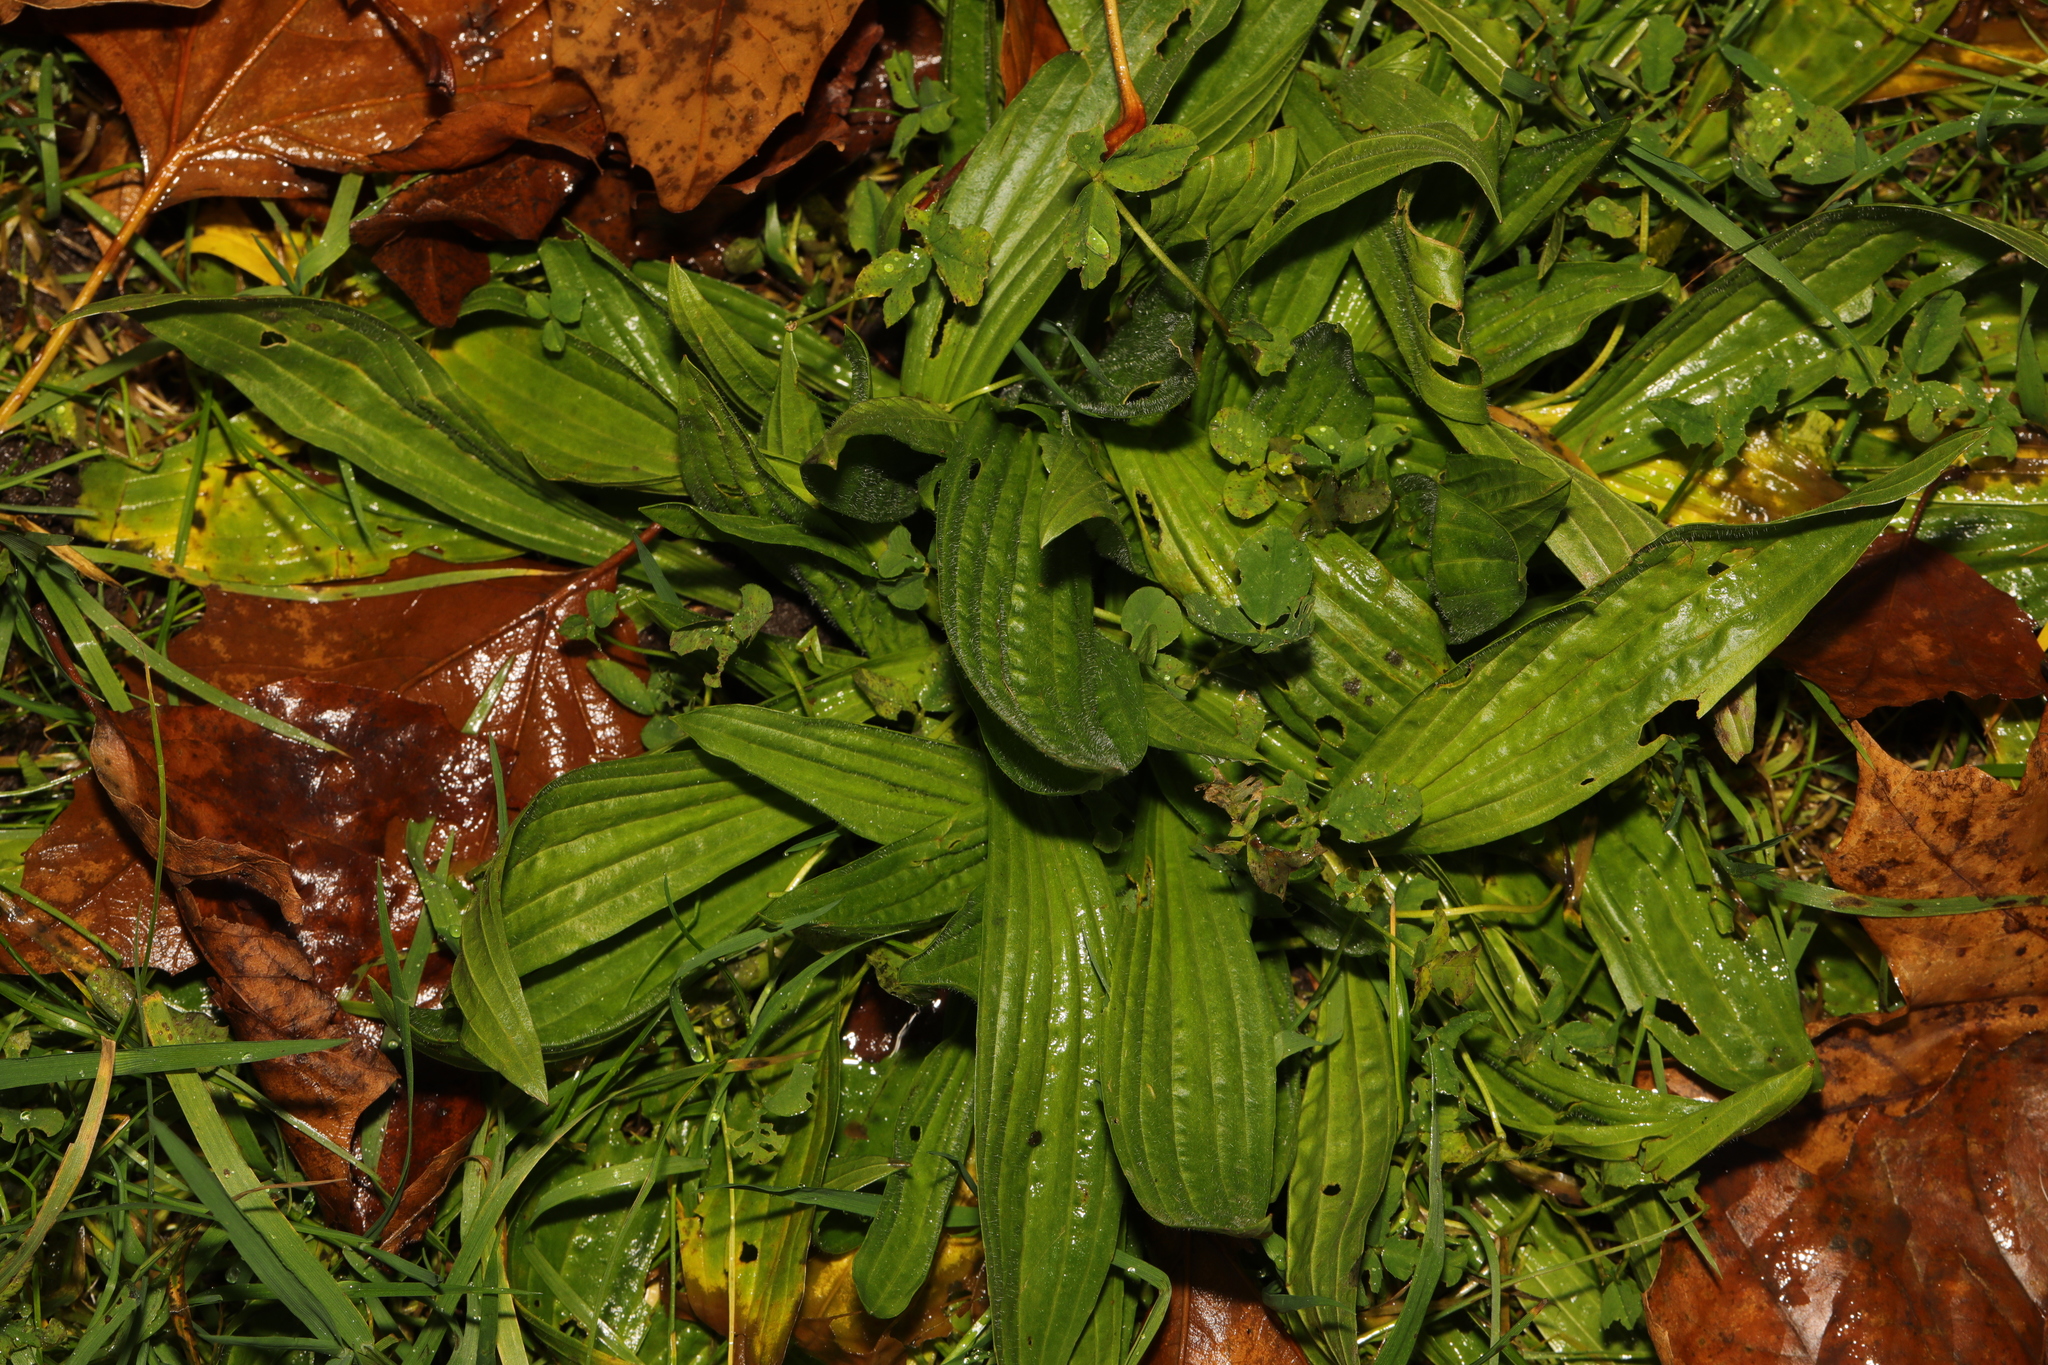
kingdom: Plantae
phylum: Tracheophyta
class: Magnoliopsida
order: Lamiales
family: Plantaginaceae
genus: Plantago
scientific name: Plantago lanceolata
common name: Ribwort plantain
